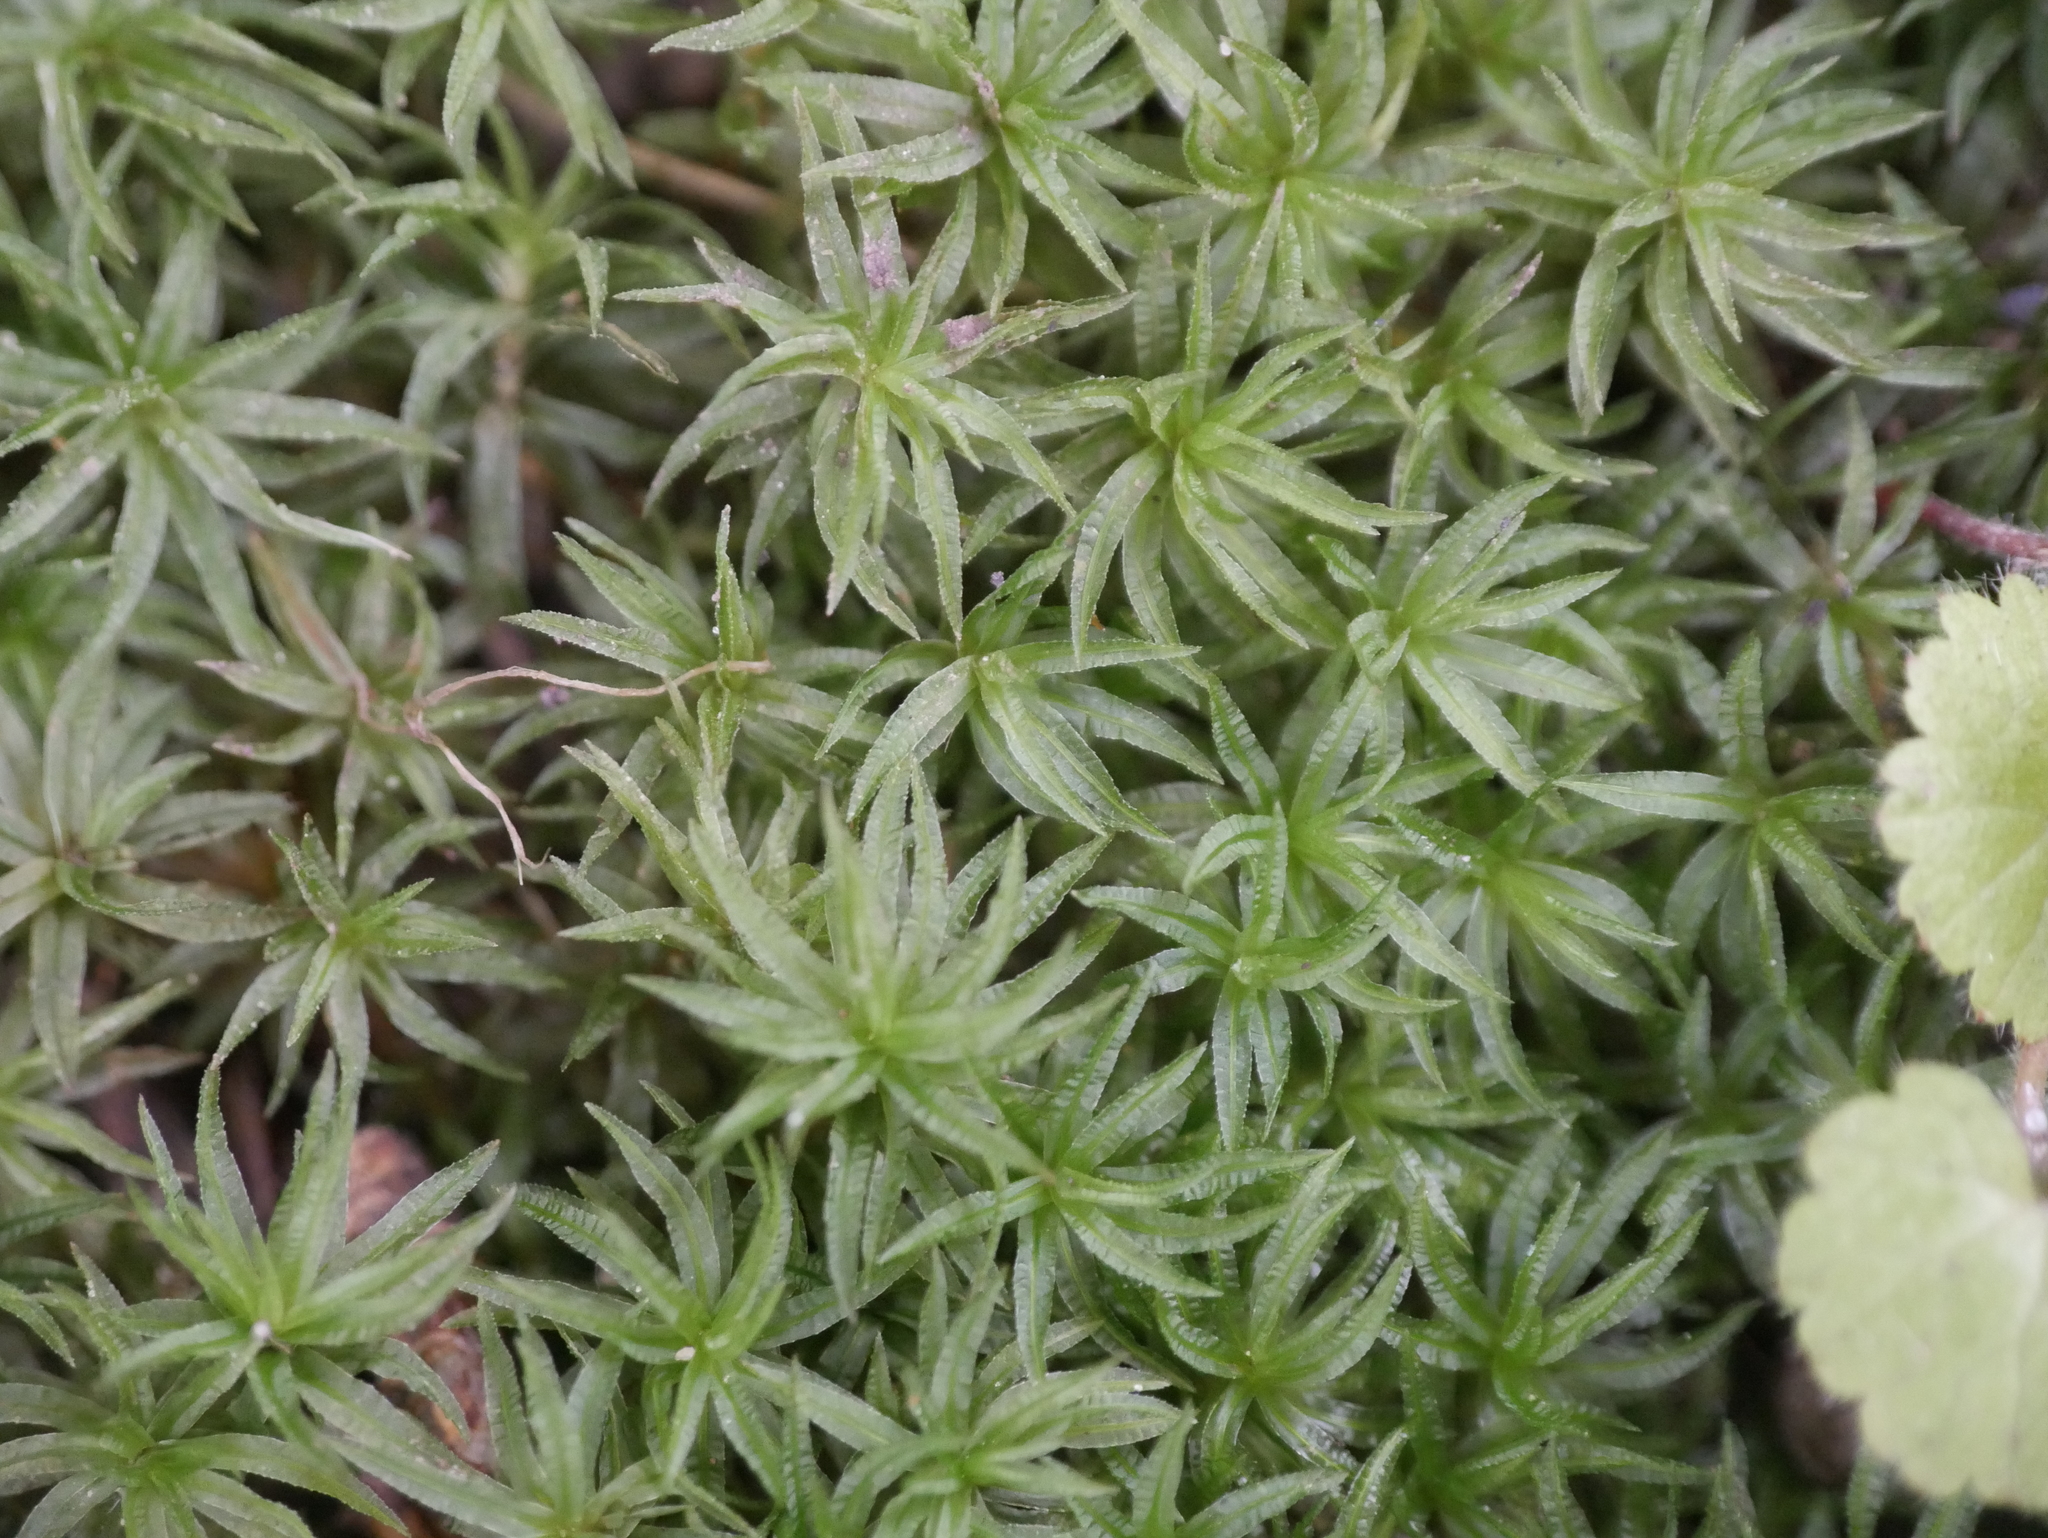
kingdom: Plantae
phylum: Bryophyta
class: Polytrichopsida
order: Polytrichales
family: Polytrichaceae
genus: Atrichum
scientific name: Atrichum undulatum
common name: Common smoothcap
